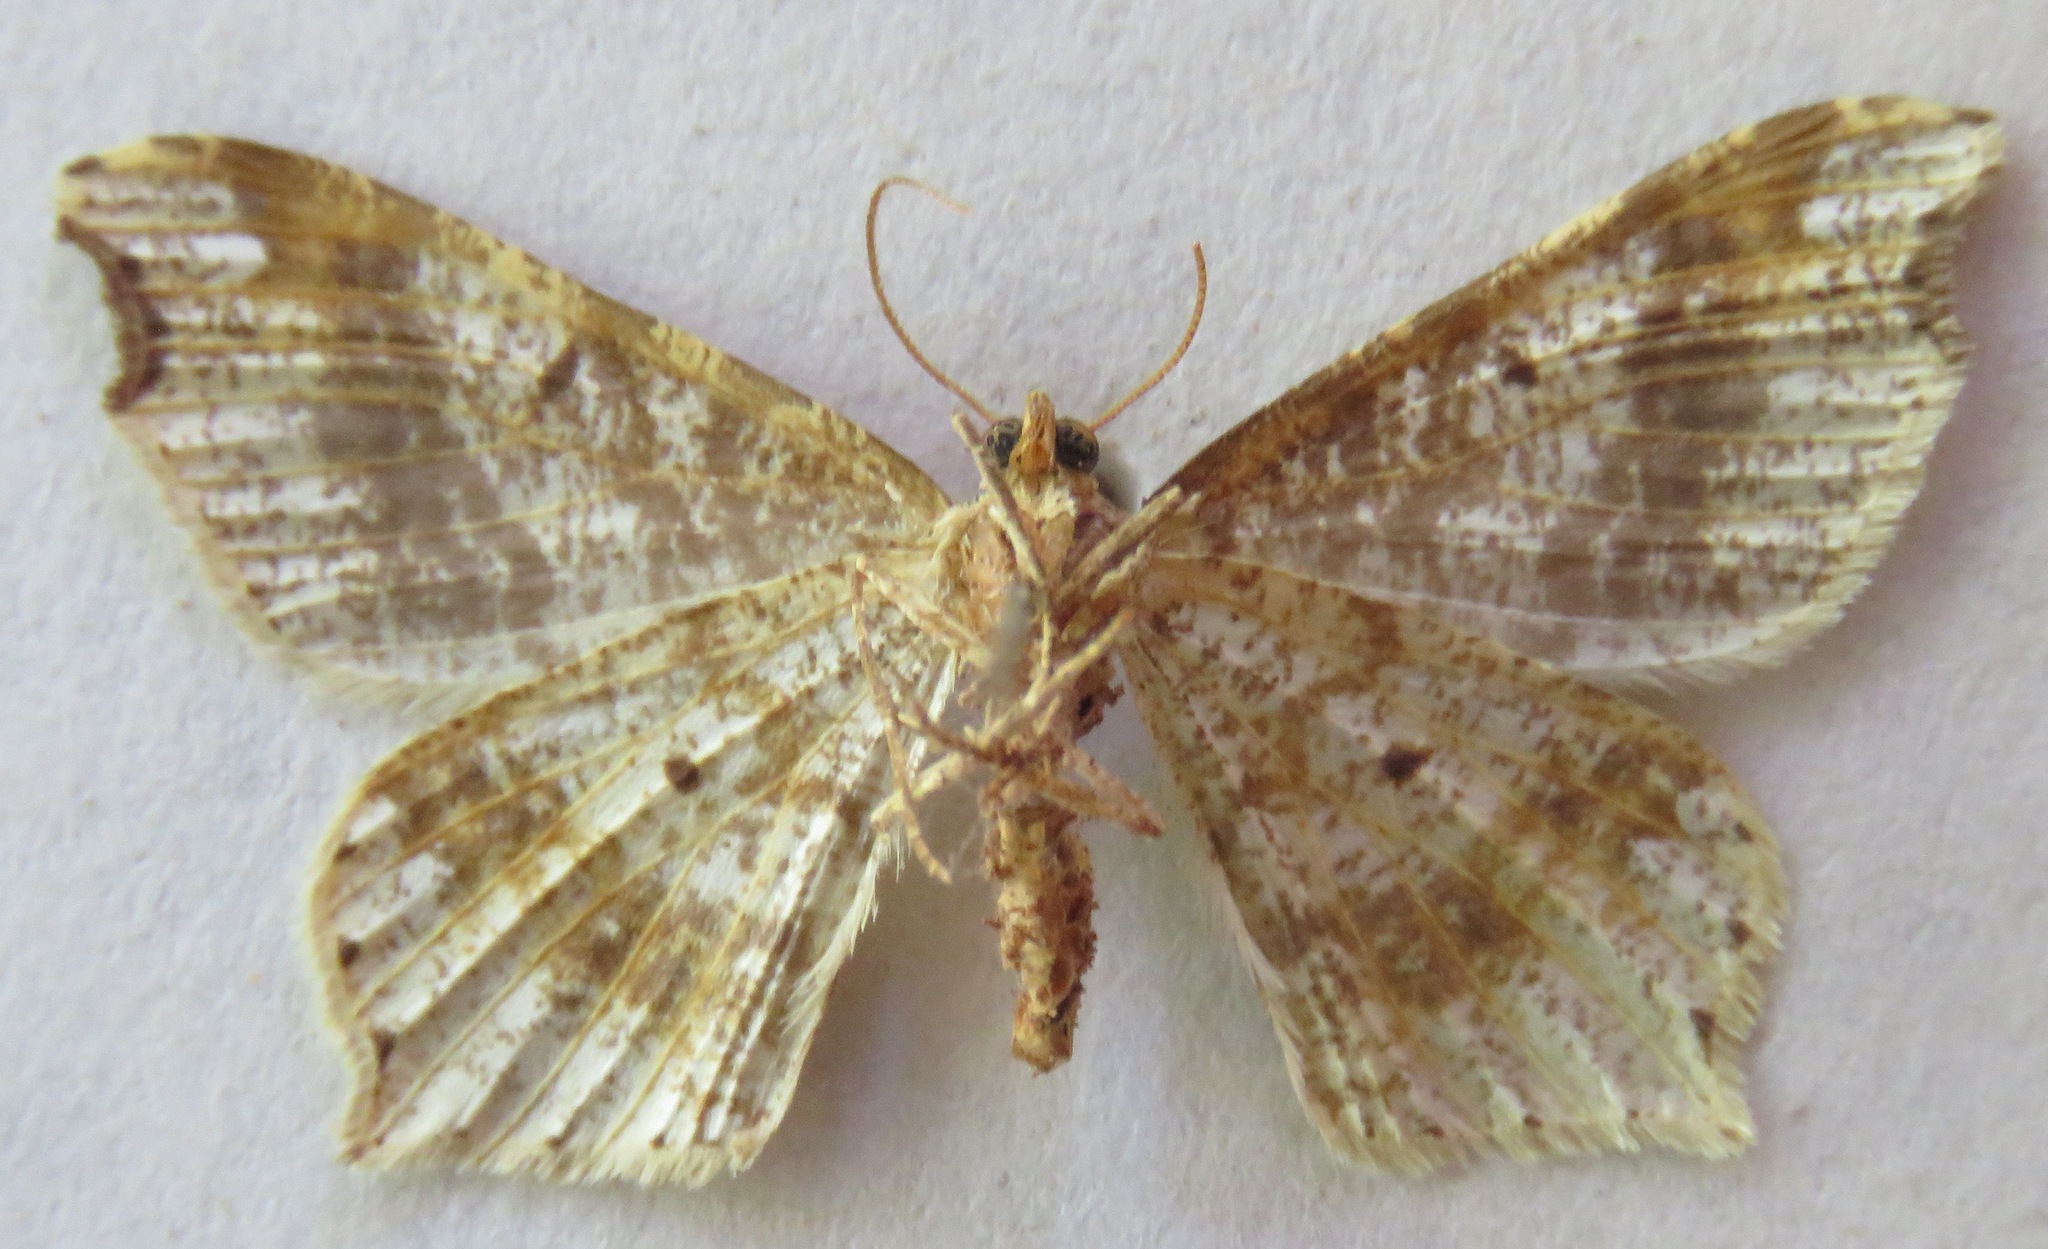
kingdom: Animalia
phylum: Arthropoda
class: Insecta
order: Lepidoptera
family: Geometridae
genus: Macaria
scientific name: Macaria alternata
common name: Sharp-angled peacock
